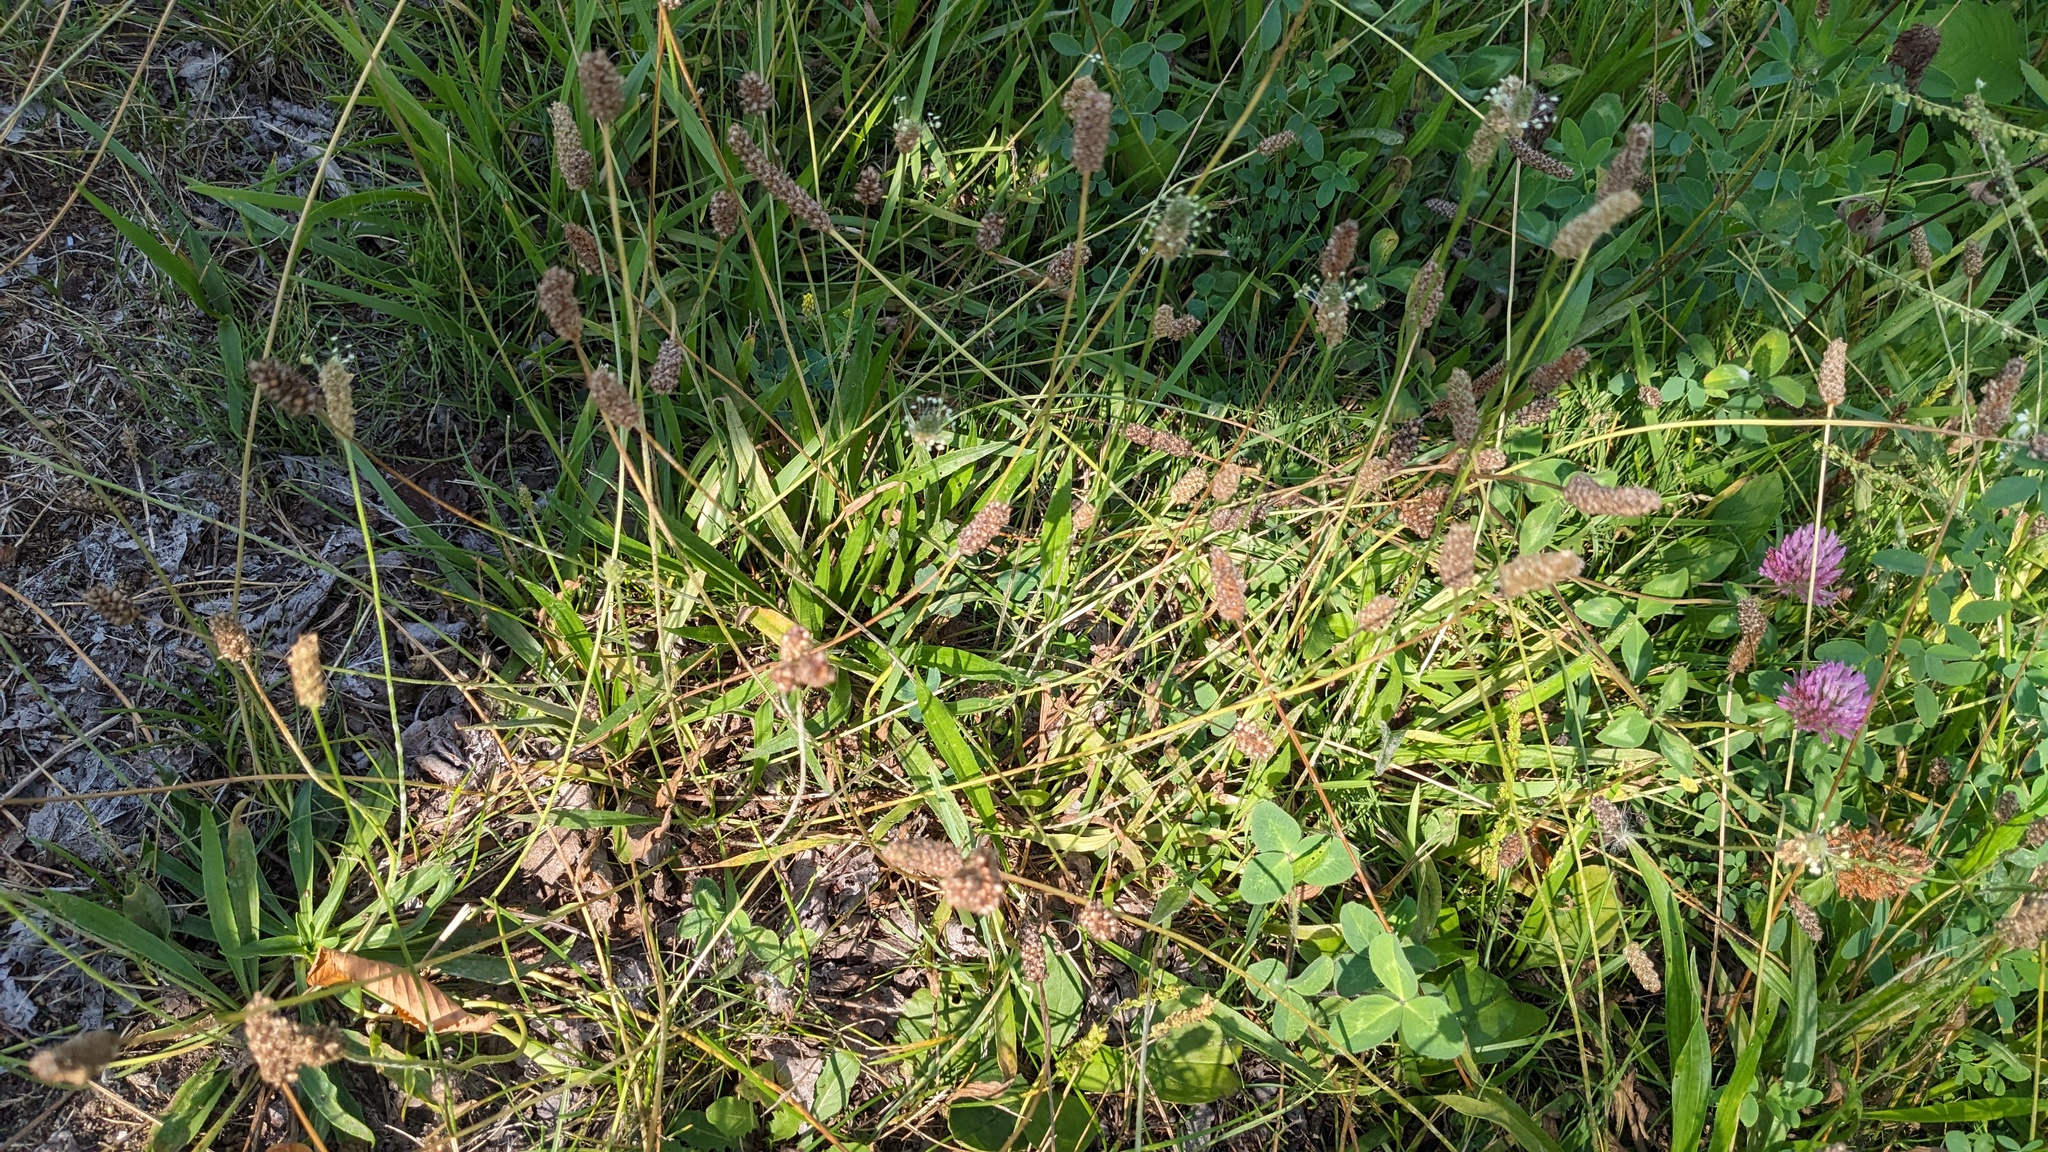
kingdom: Plantae
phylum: Tracheophyta
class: Magnoliopsida
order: Lamiales
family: Plantaginaceae
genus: Plantago
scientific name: Plantago lanceolata
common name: Ribwort plantain
